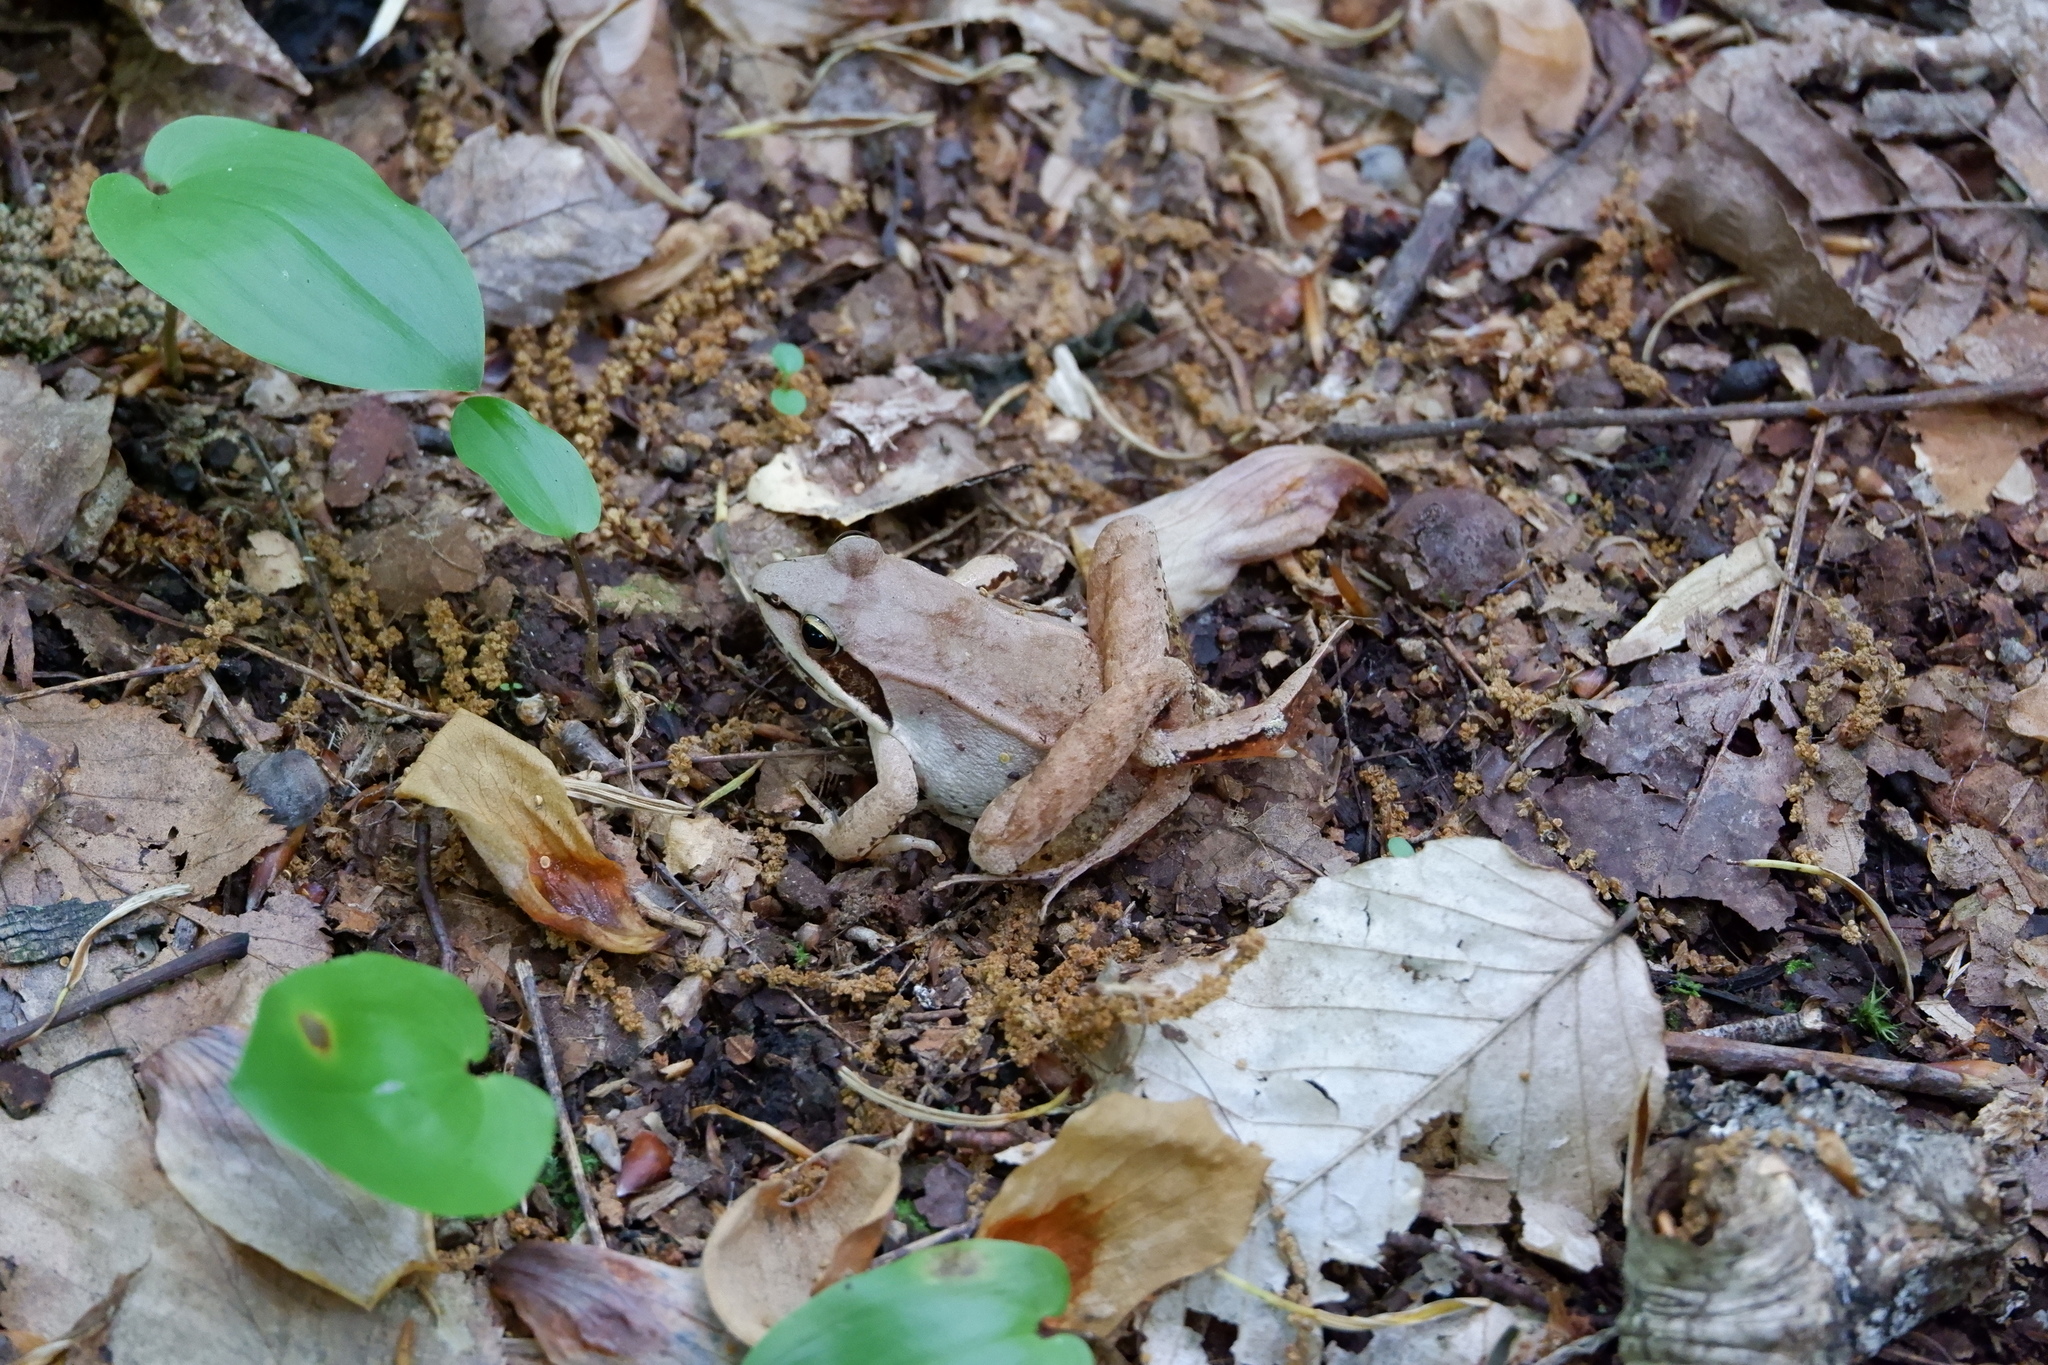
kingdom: Animalia
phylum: Chordata
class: Amphibia
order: Anura
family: Ranidae
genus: Lithobates
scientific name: Lithobates sylvaticus
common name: Wood frog
